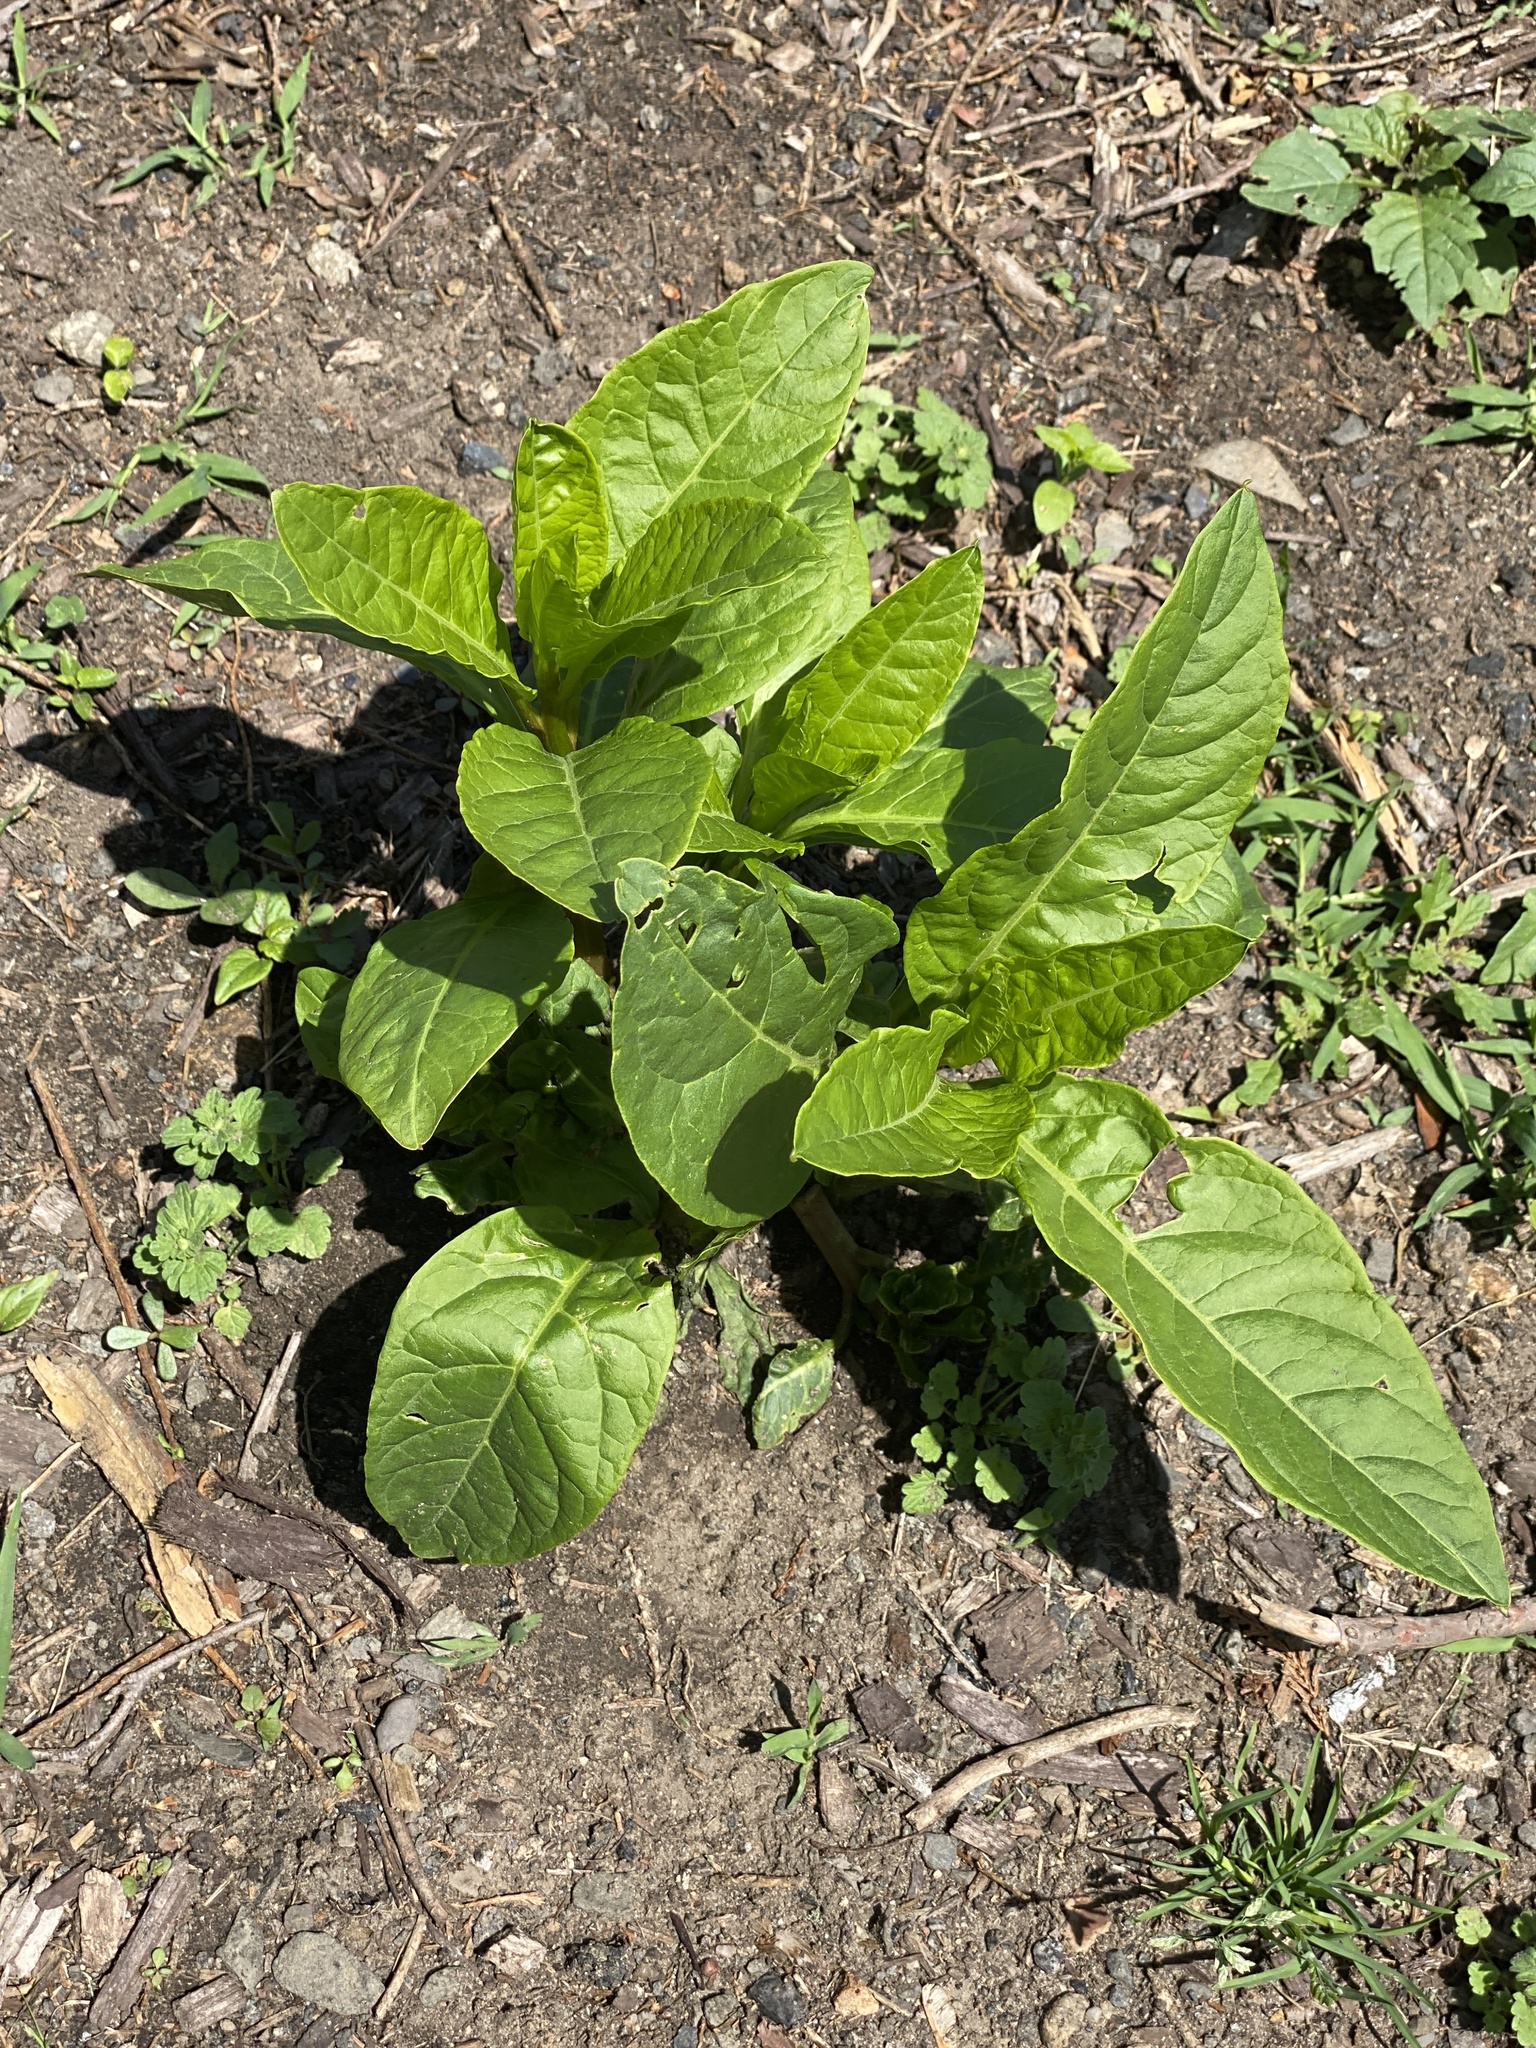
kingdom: Plantae
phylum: Tracheophyta
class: Magnoliopsida
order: Caryophyllales
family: Phytolaccaceae
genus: Phytolacca
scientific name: Phytolacca americana
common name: American pokeweed
